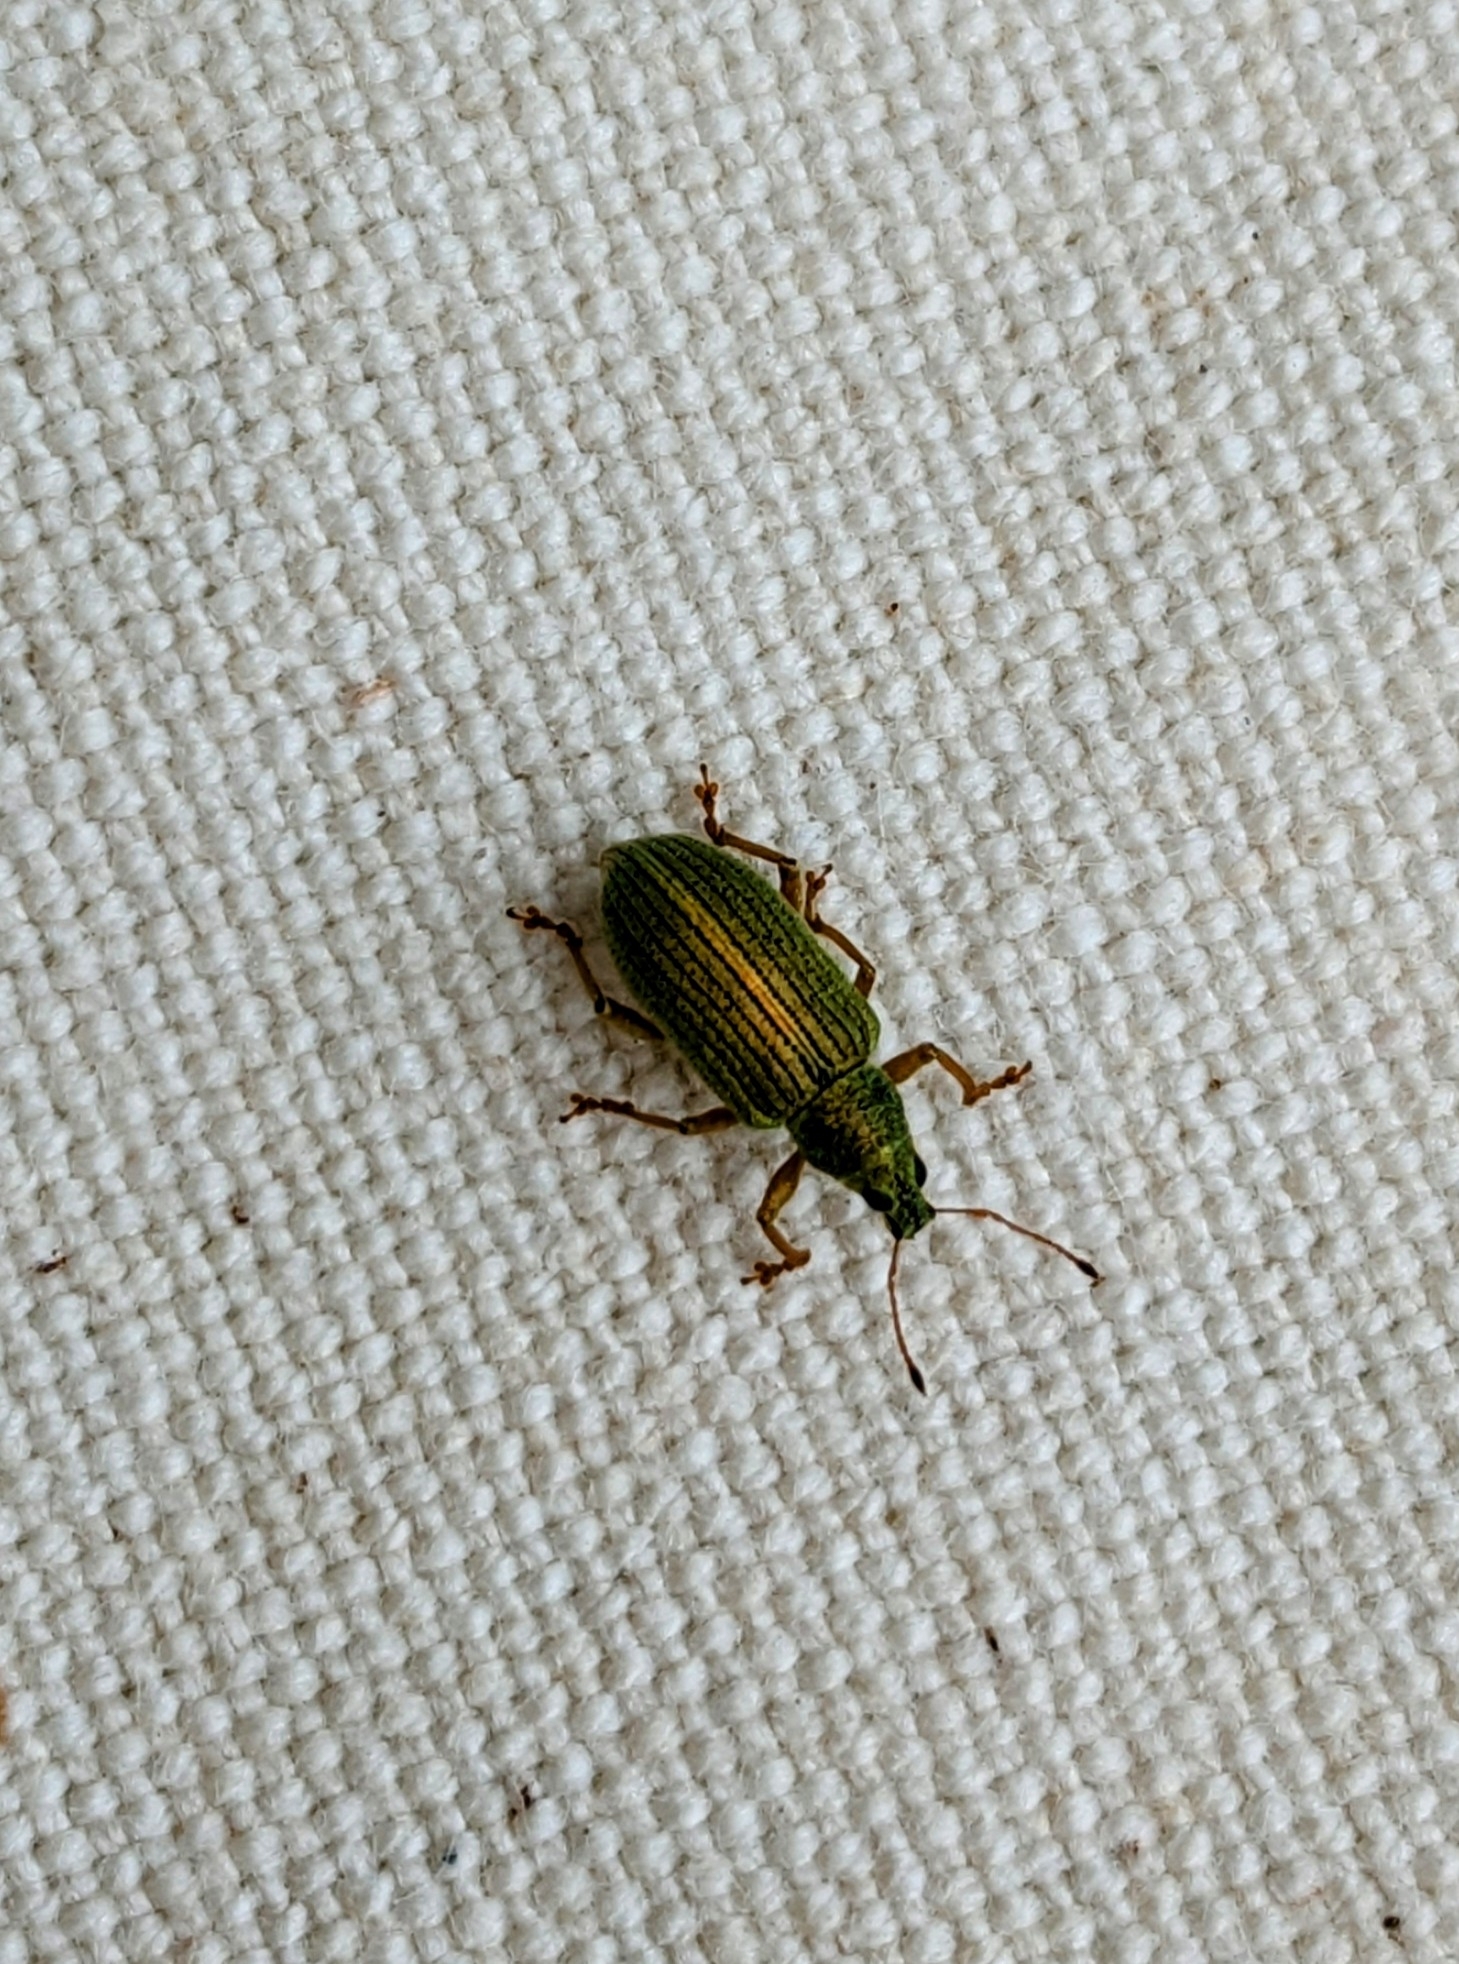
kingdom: Animalia
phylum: Arthropoda
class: Insecta
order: Coleoptera
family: Curculionidae
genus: Polydrusus
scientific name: Polydrusus formosus
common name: Weevil
